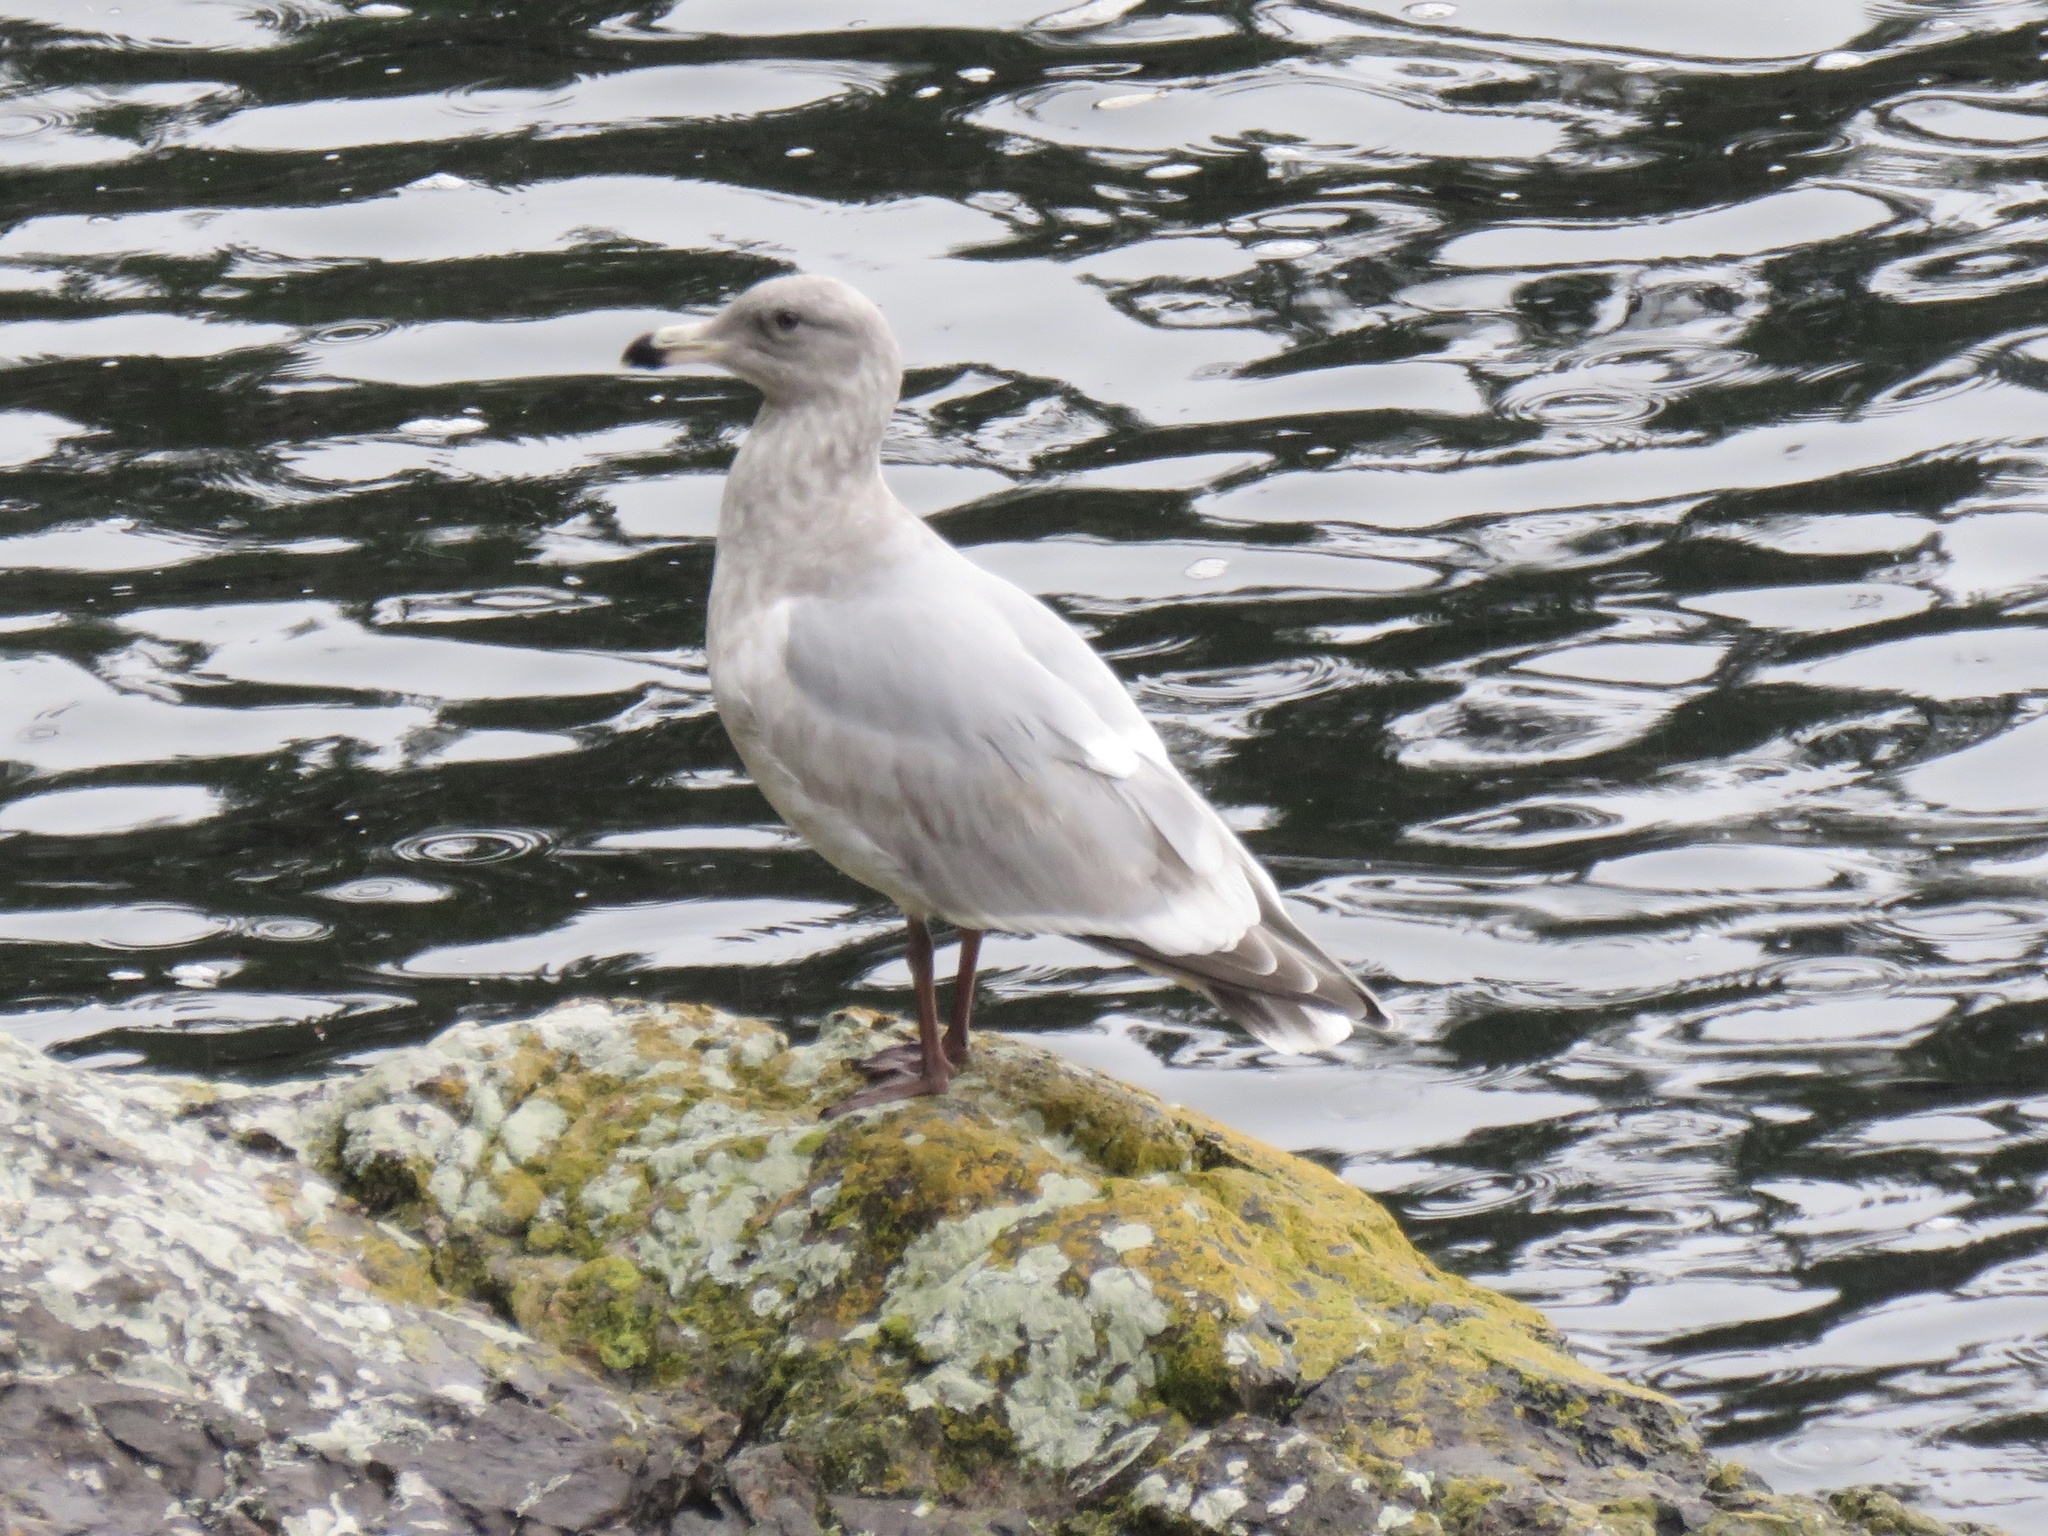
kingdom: Animalia
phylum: Chordata
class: Aves
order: Charadriiformes
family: Laridae
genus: Larus
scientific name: Larus
